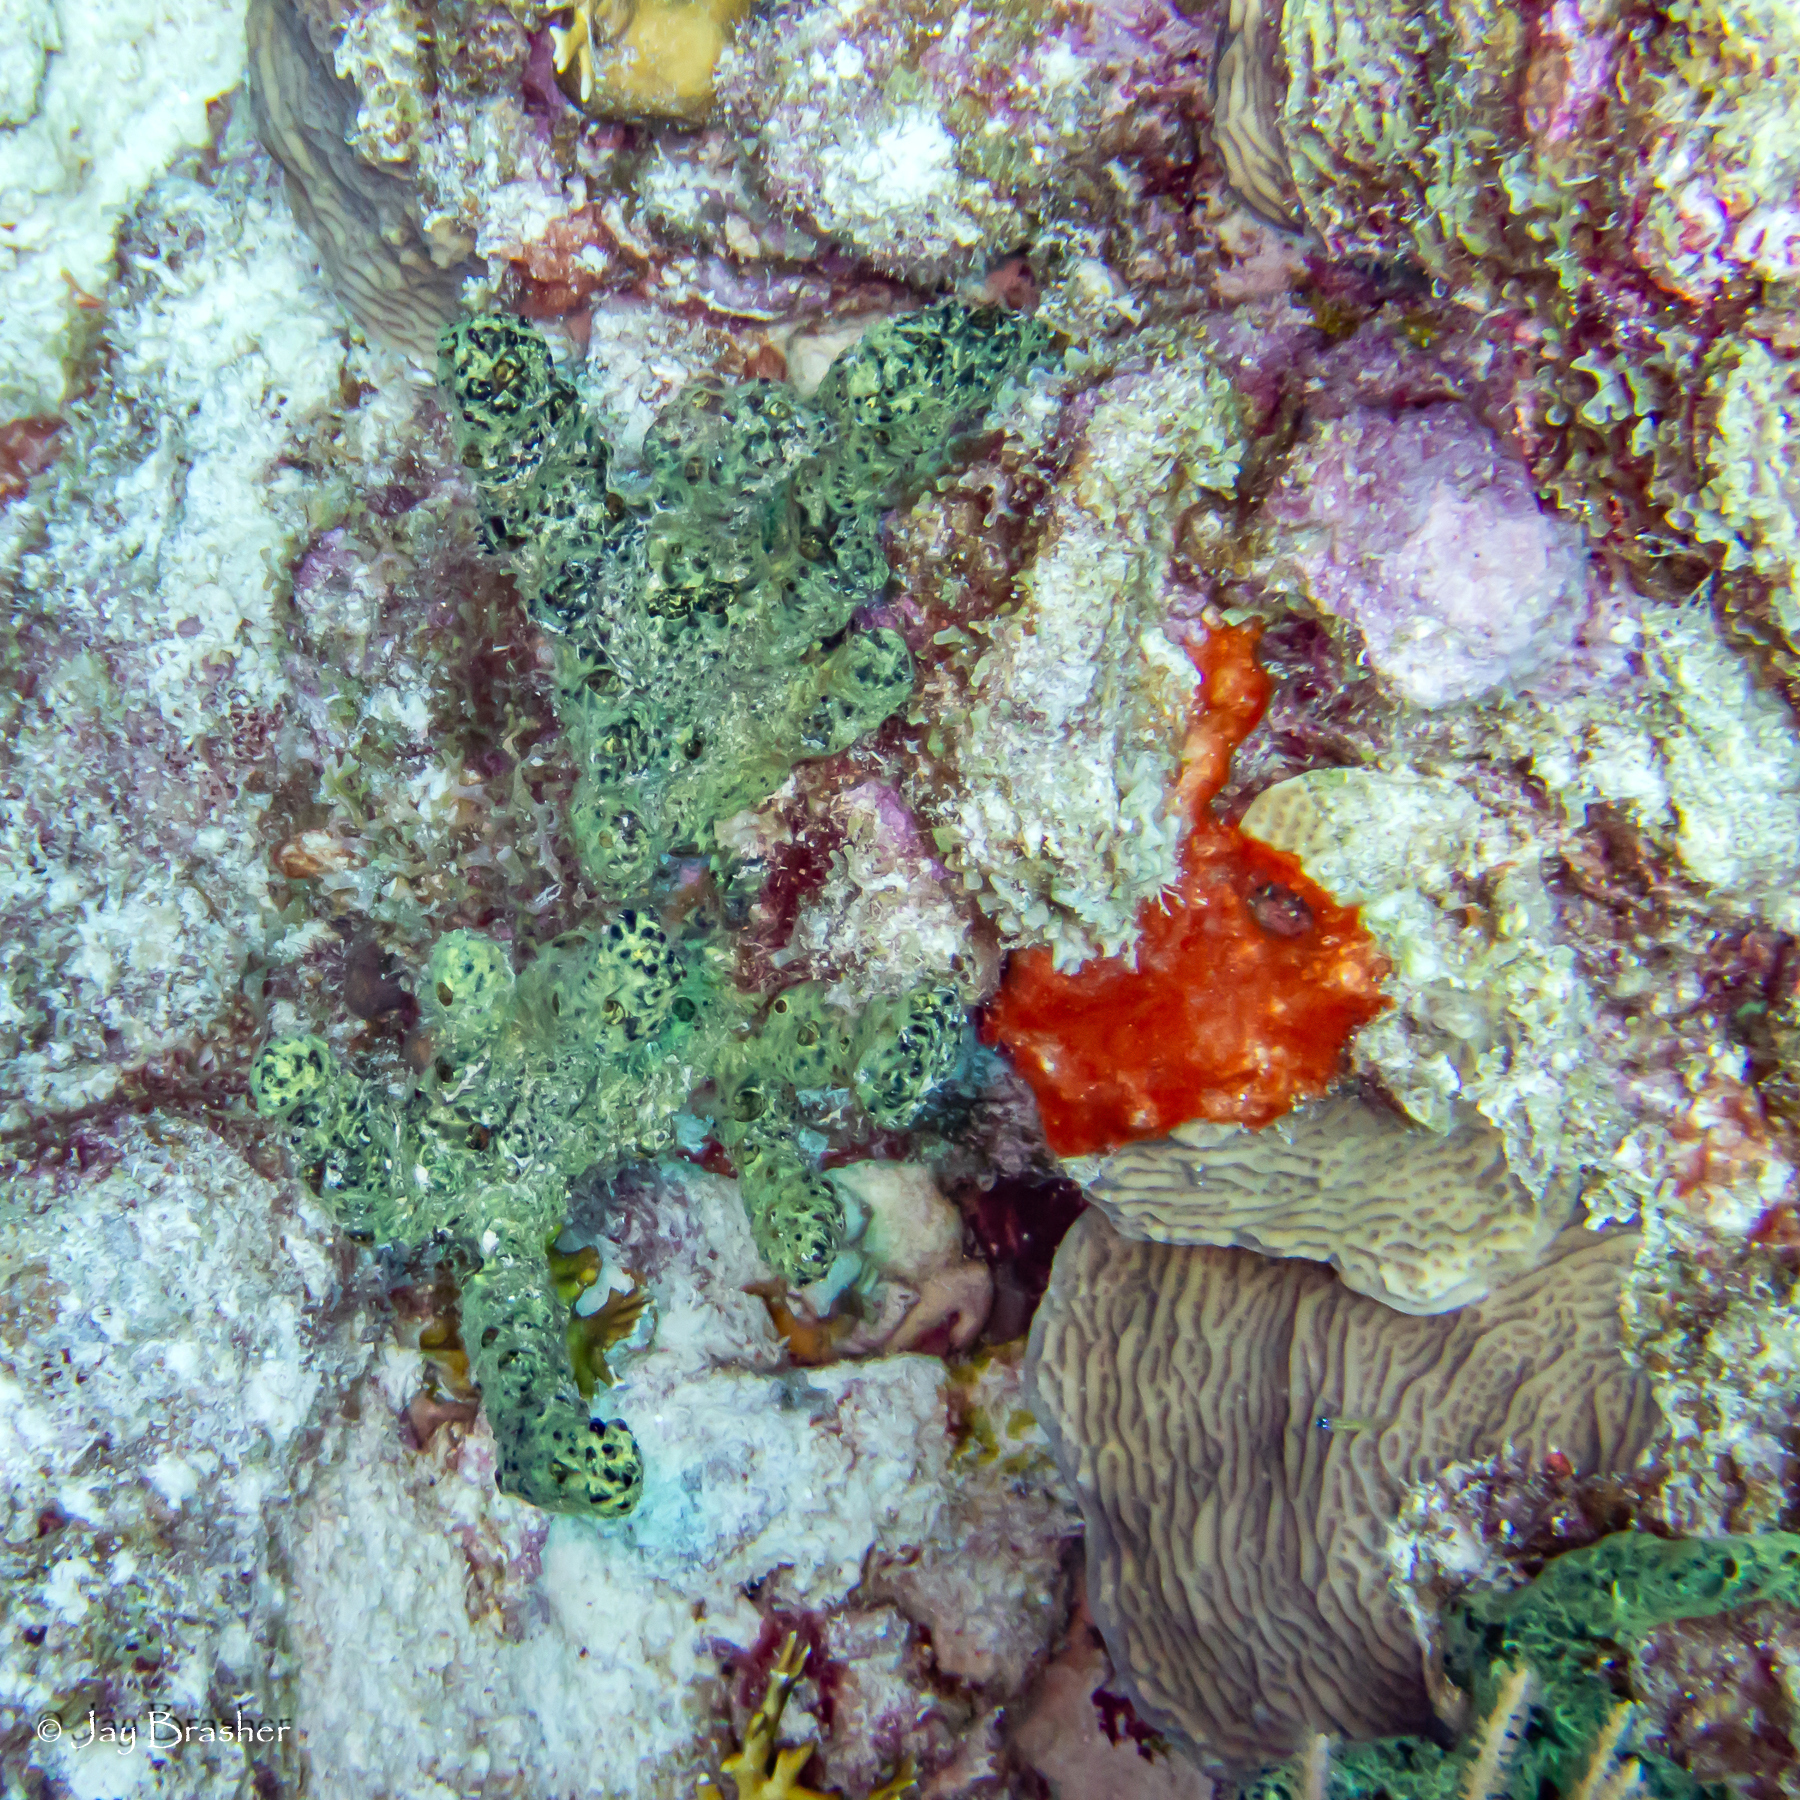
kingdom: Animalia
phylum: Porifera
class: Demospongiae
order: Poecilosclerida
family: Iotrochotidae
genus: Iotrochota
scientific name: Iotrochota birotulata
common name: Purple bleeding sponge
